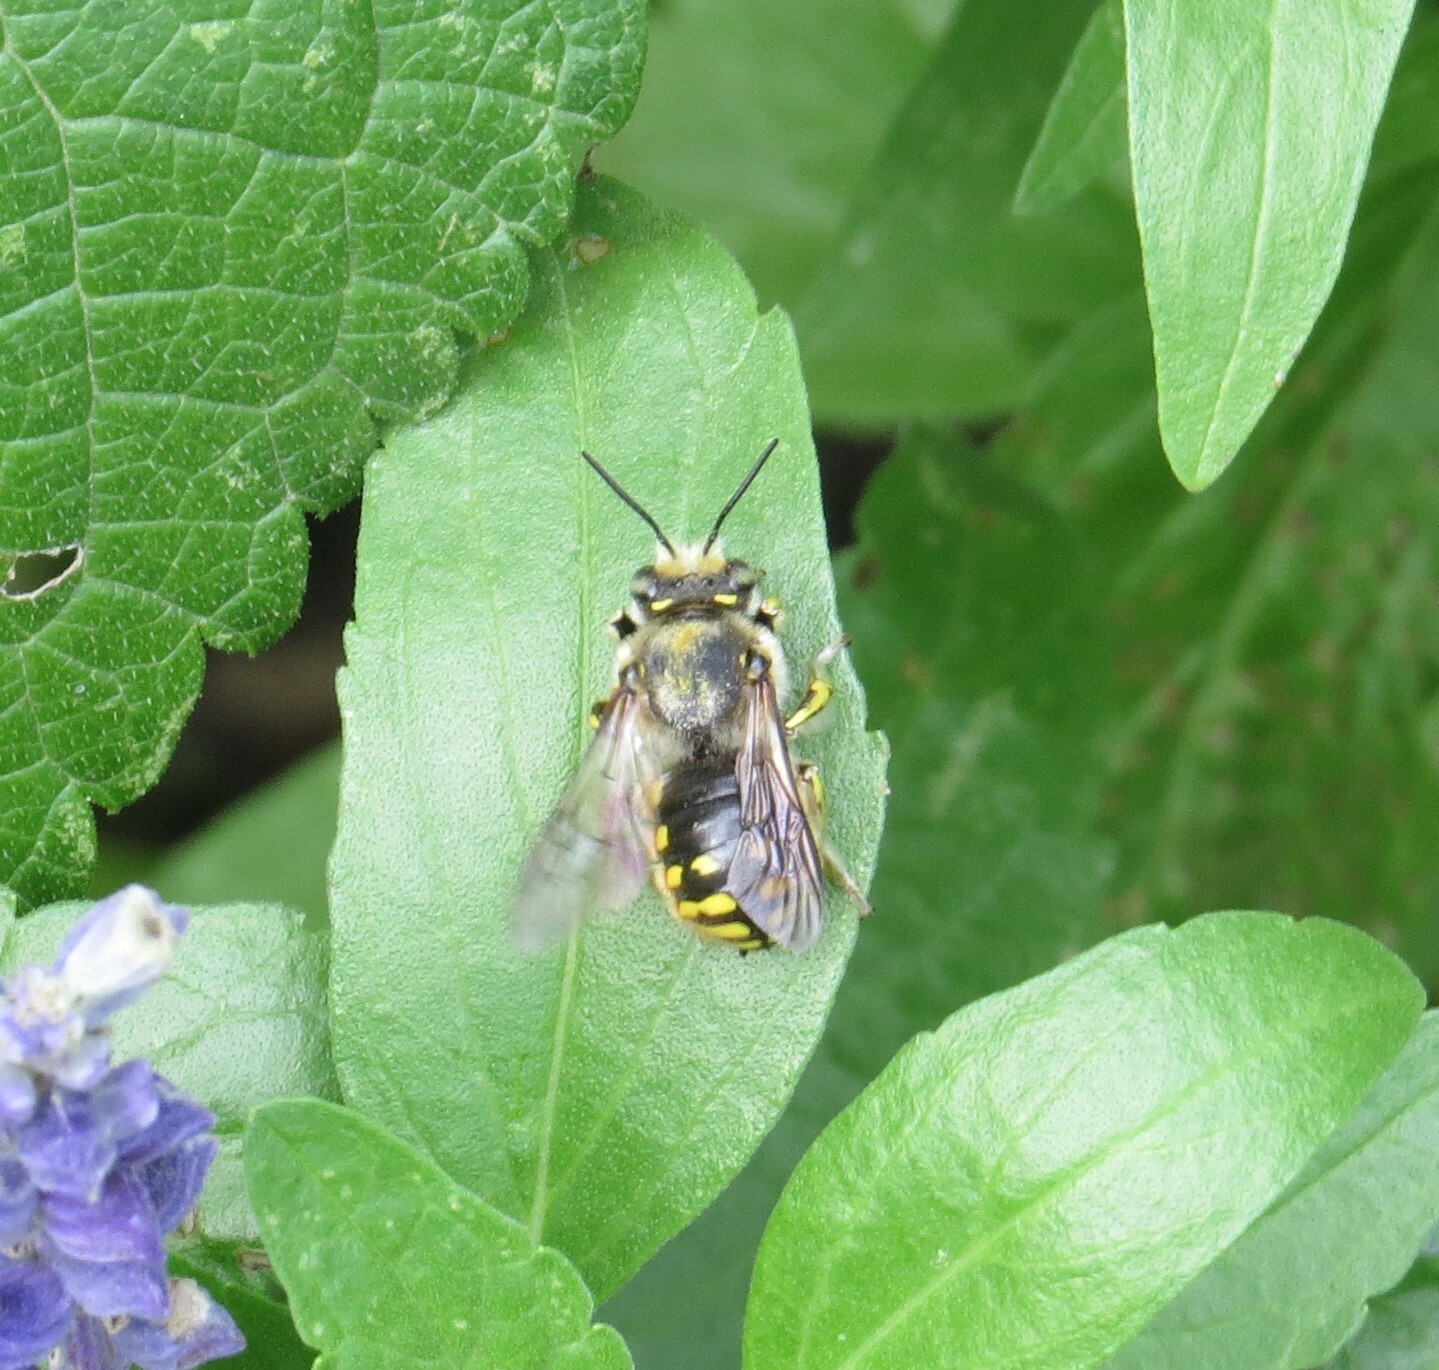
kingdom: Animalia
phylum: Arthropoda
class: Insecta
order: Hymenoptera
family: Megachilidae
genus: Anthidium
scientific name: Anthidium manicatum
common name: Wool carder bee
